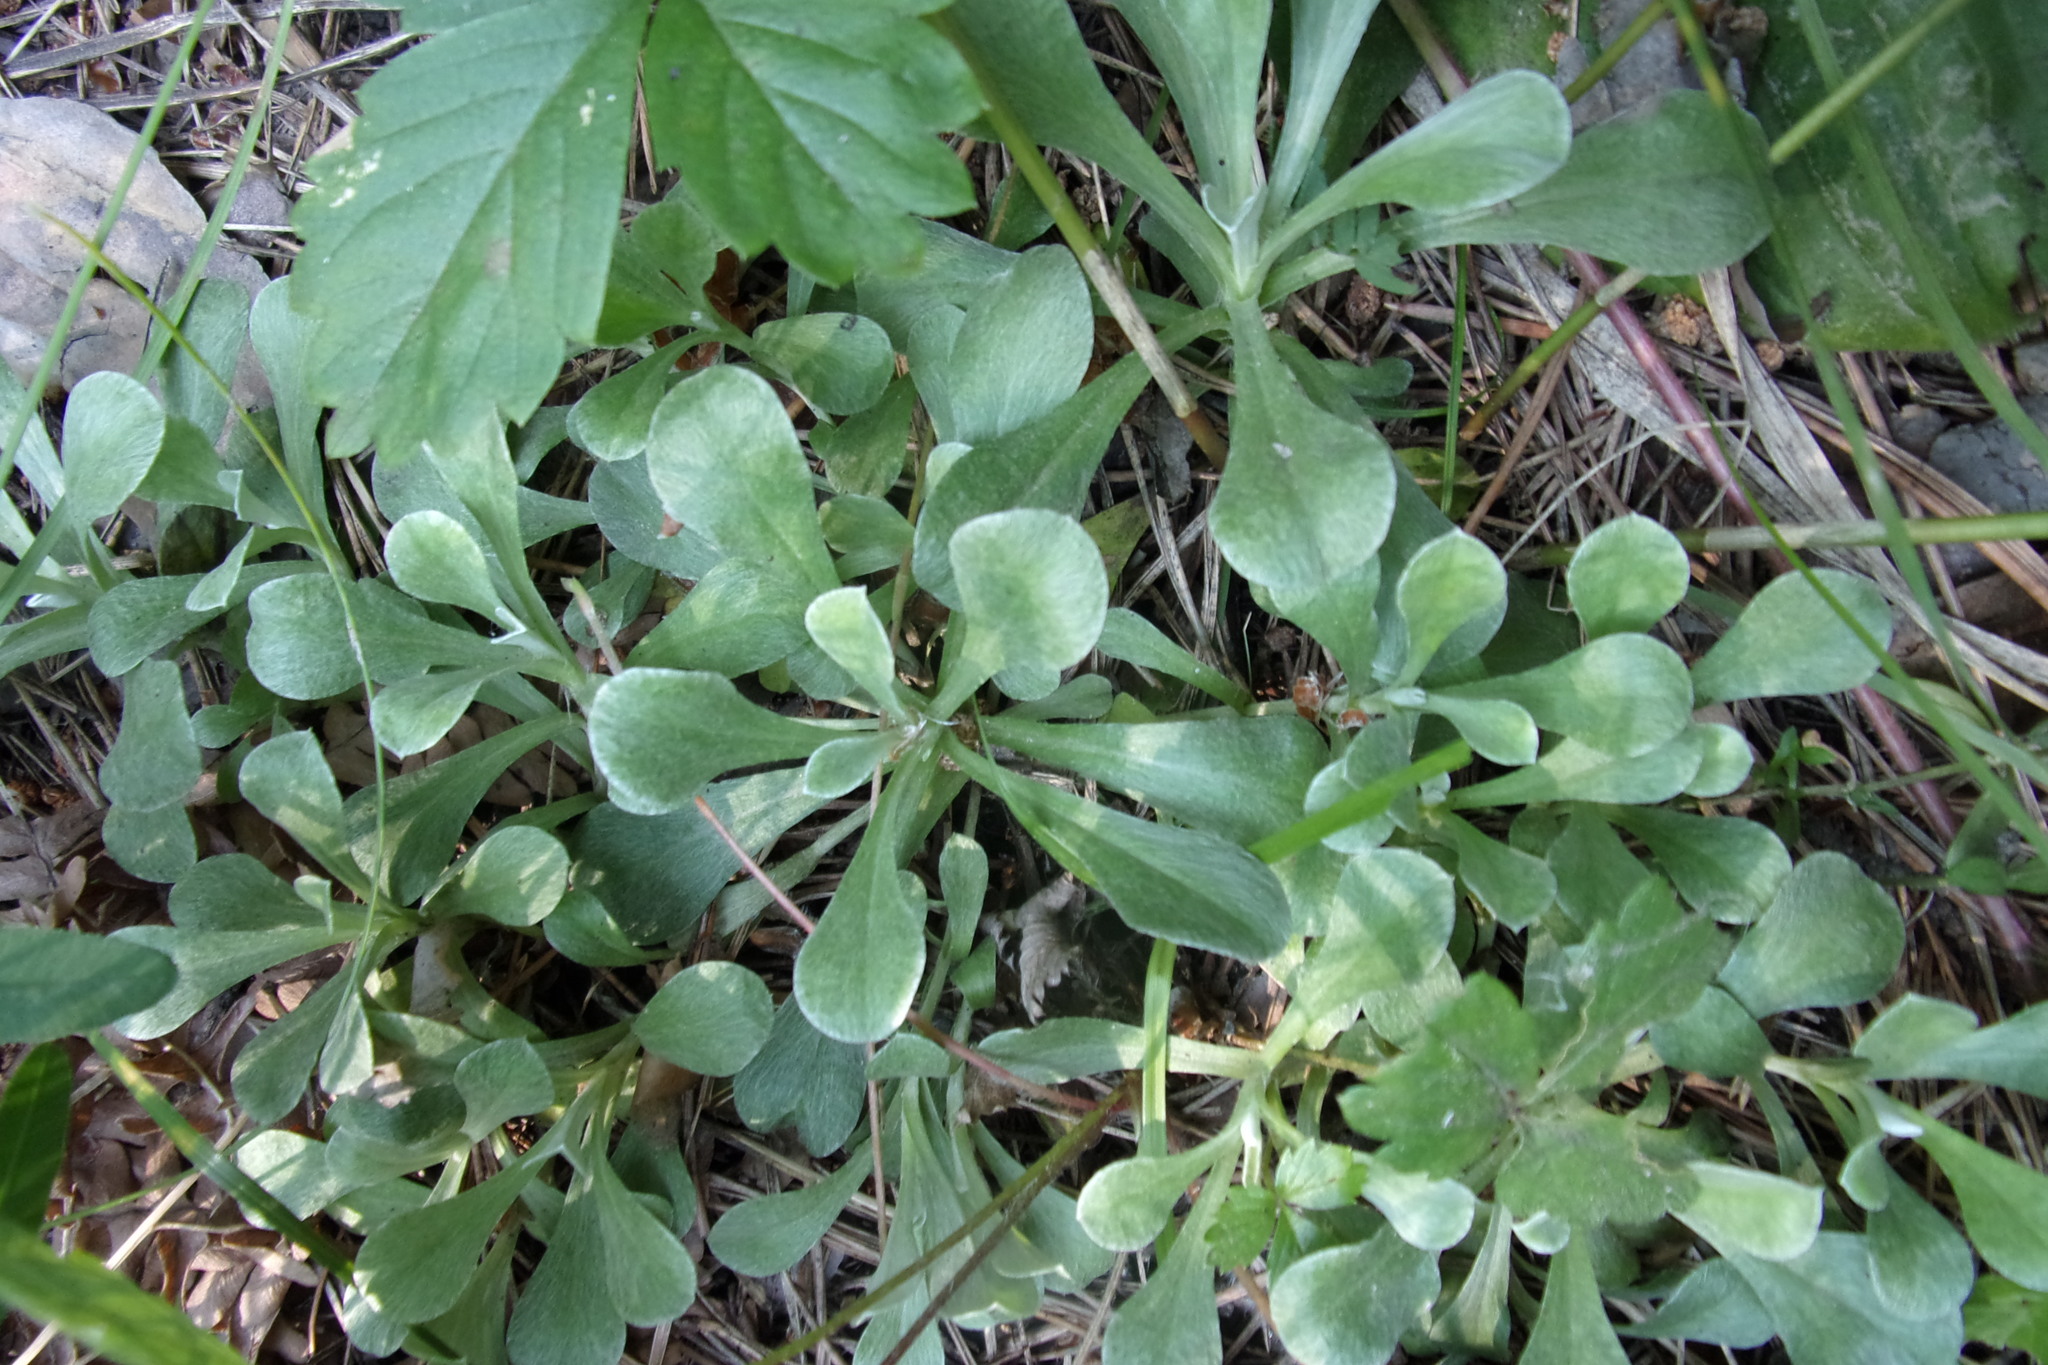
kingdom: Plantae
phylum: Tracheophyta
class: Magnoliopsida
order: Asterales
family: Asteraceae
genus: Antennaria
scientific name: Antennaria dioica
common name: Mountain everlasting
